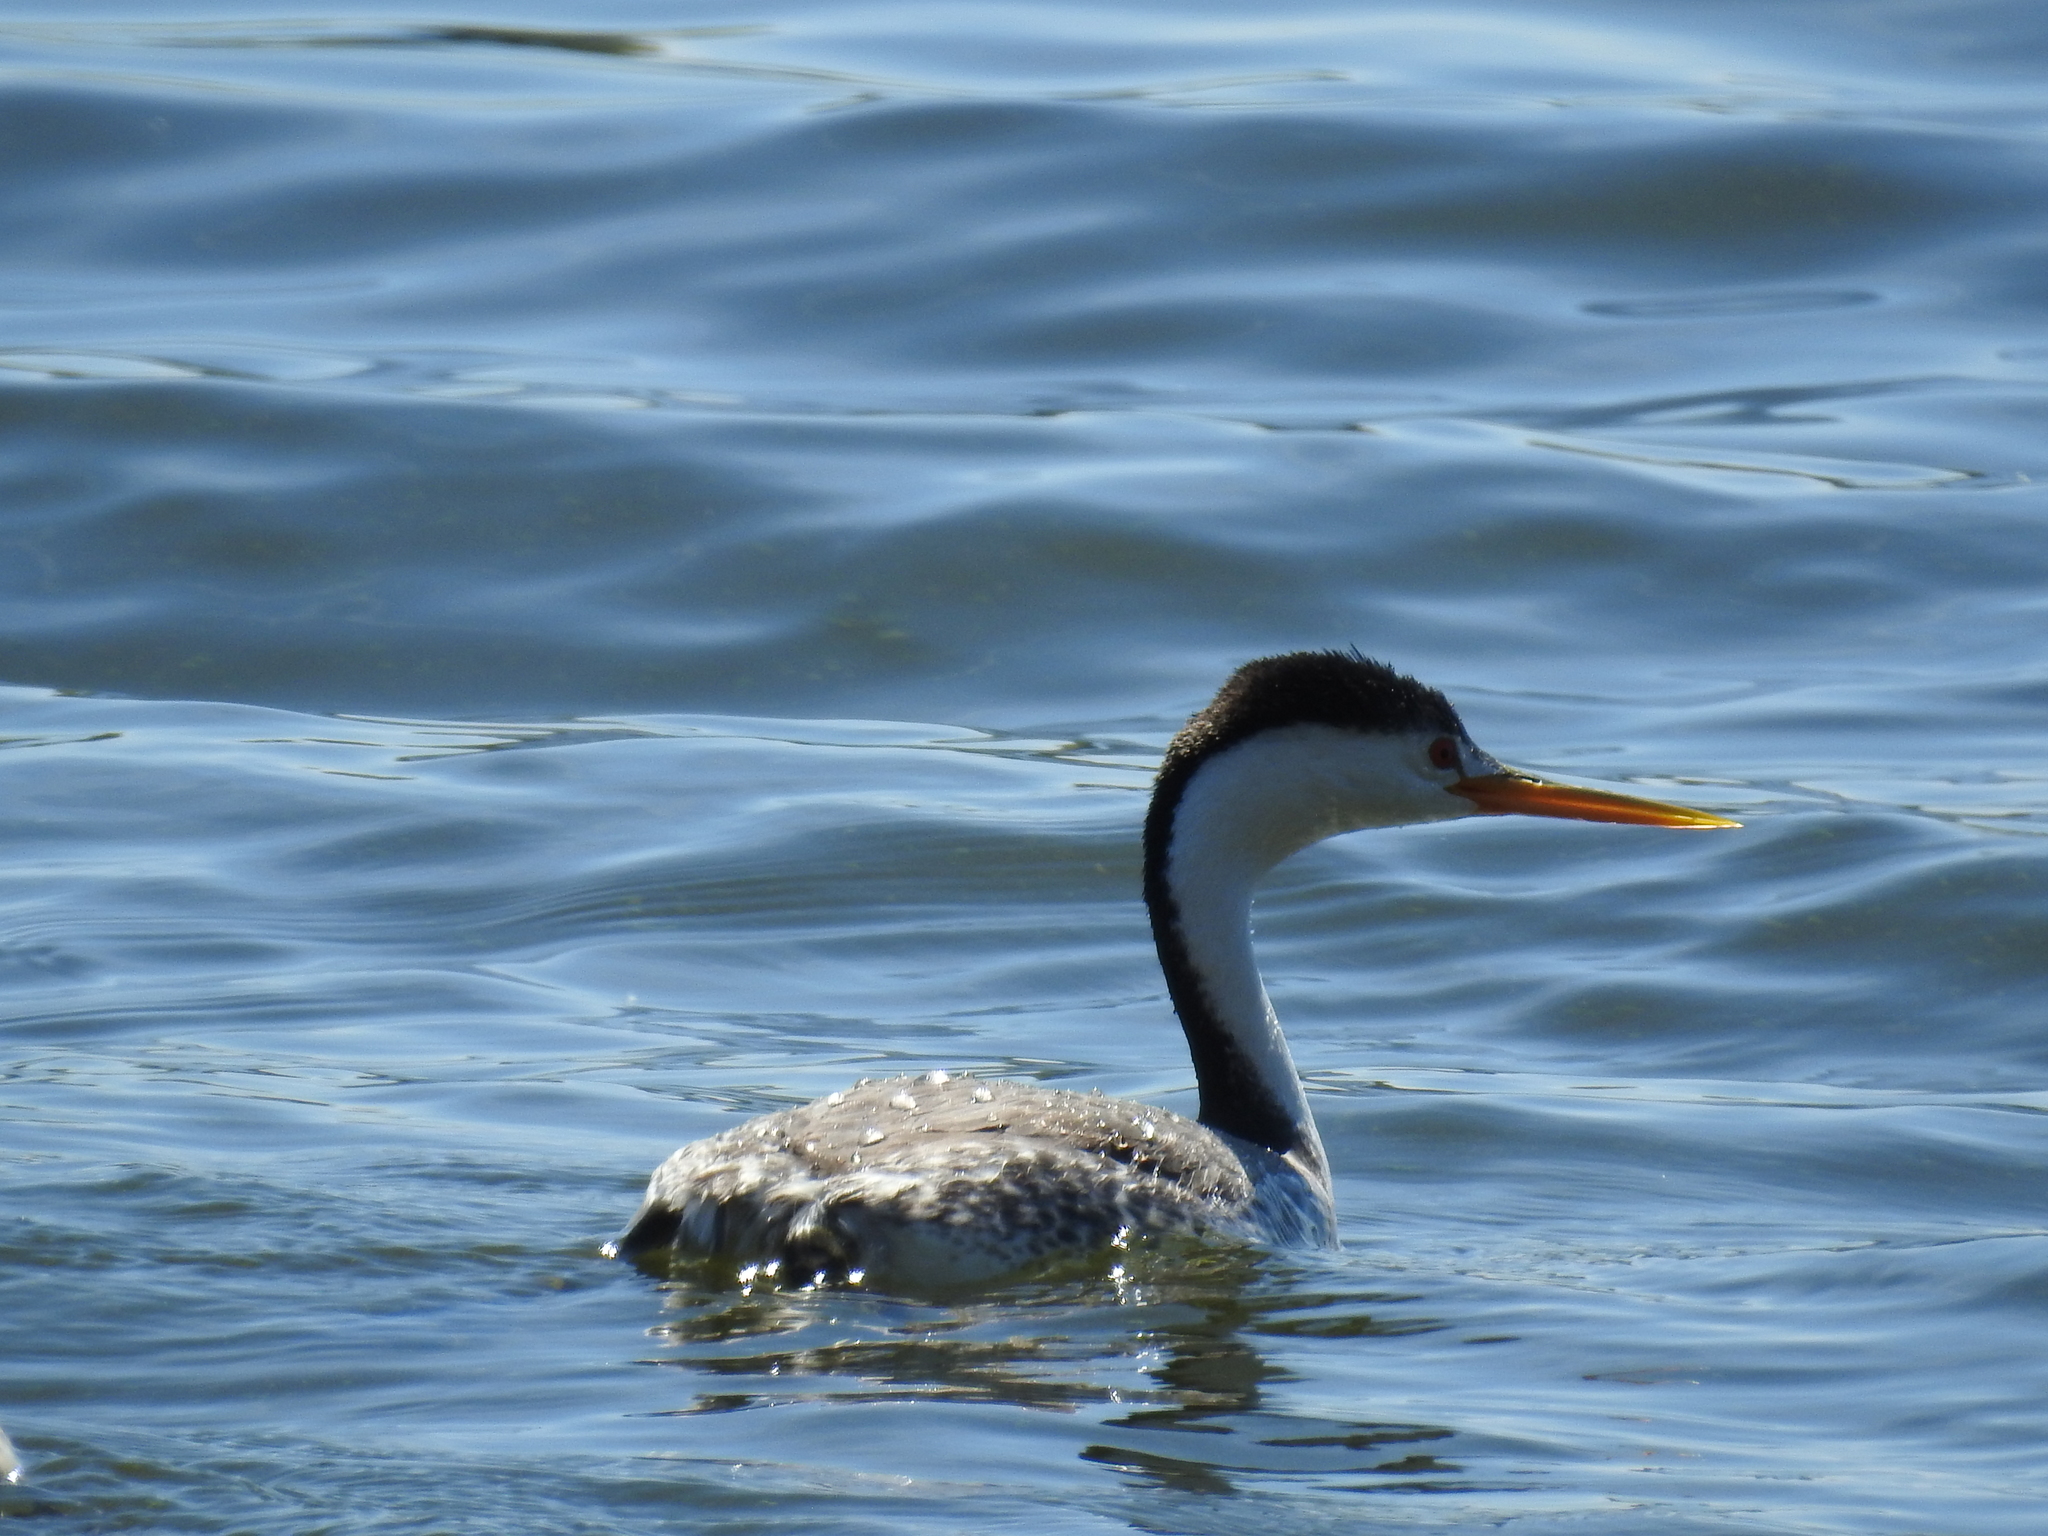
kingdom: Animalia
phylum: Chordata
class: Aves
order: Podicipediformes
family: Podicipedidae
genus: Aechmophorus
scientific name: Aechmophorus clarkii
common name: Clark's grebe
